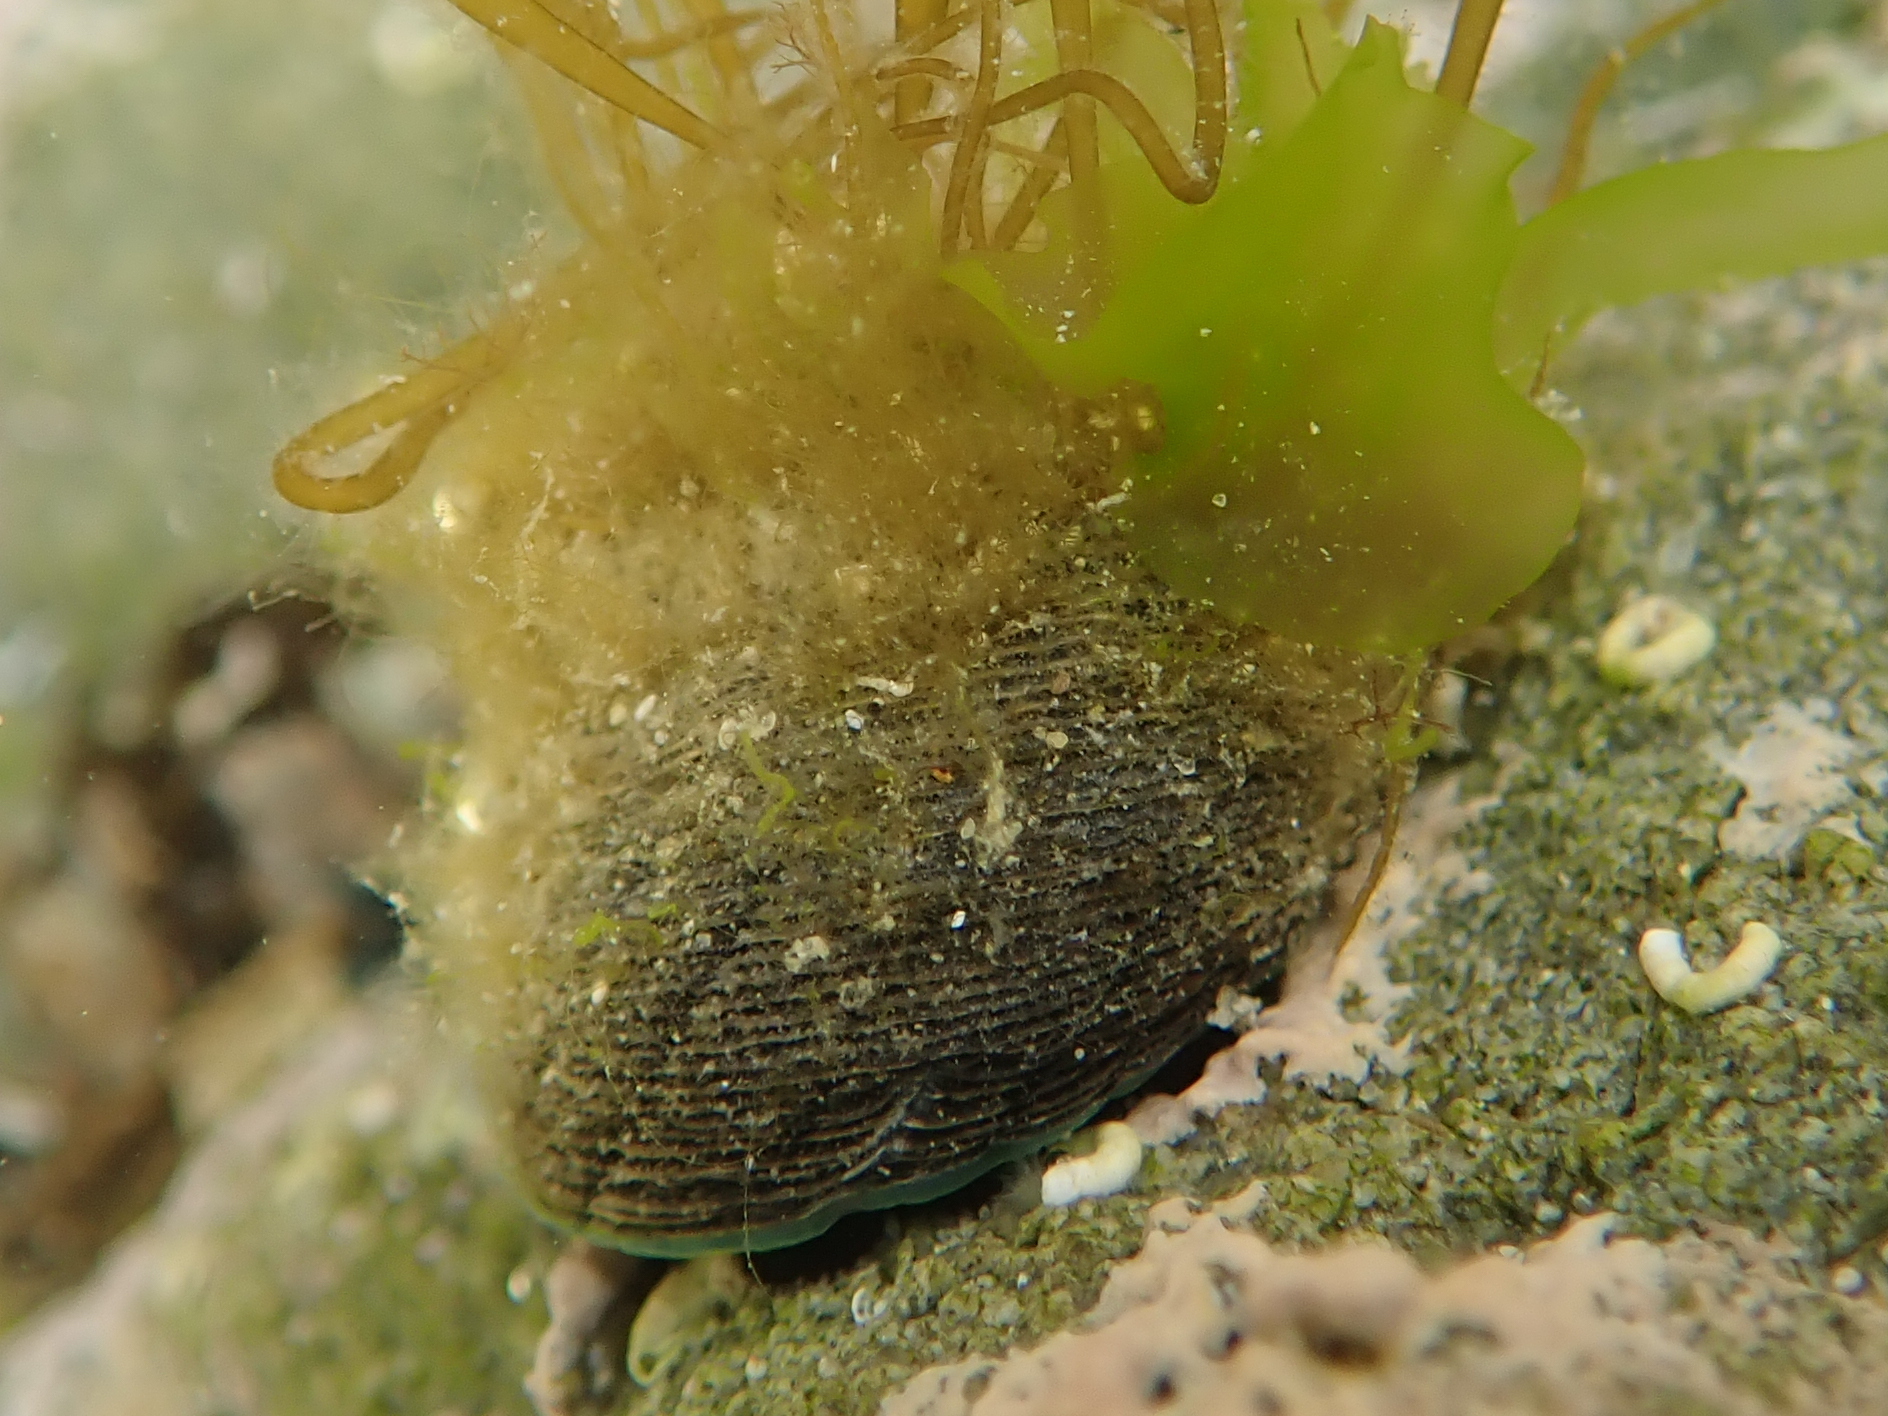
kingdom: Animalia
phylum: Mollusca
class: Gastropoda
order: Trochida
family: Trochidae
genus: Diloma
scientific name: Diloma aethiops
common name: Scorched monodont
